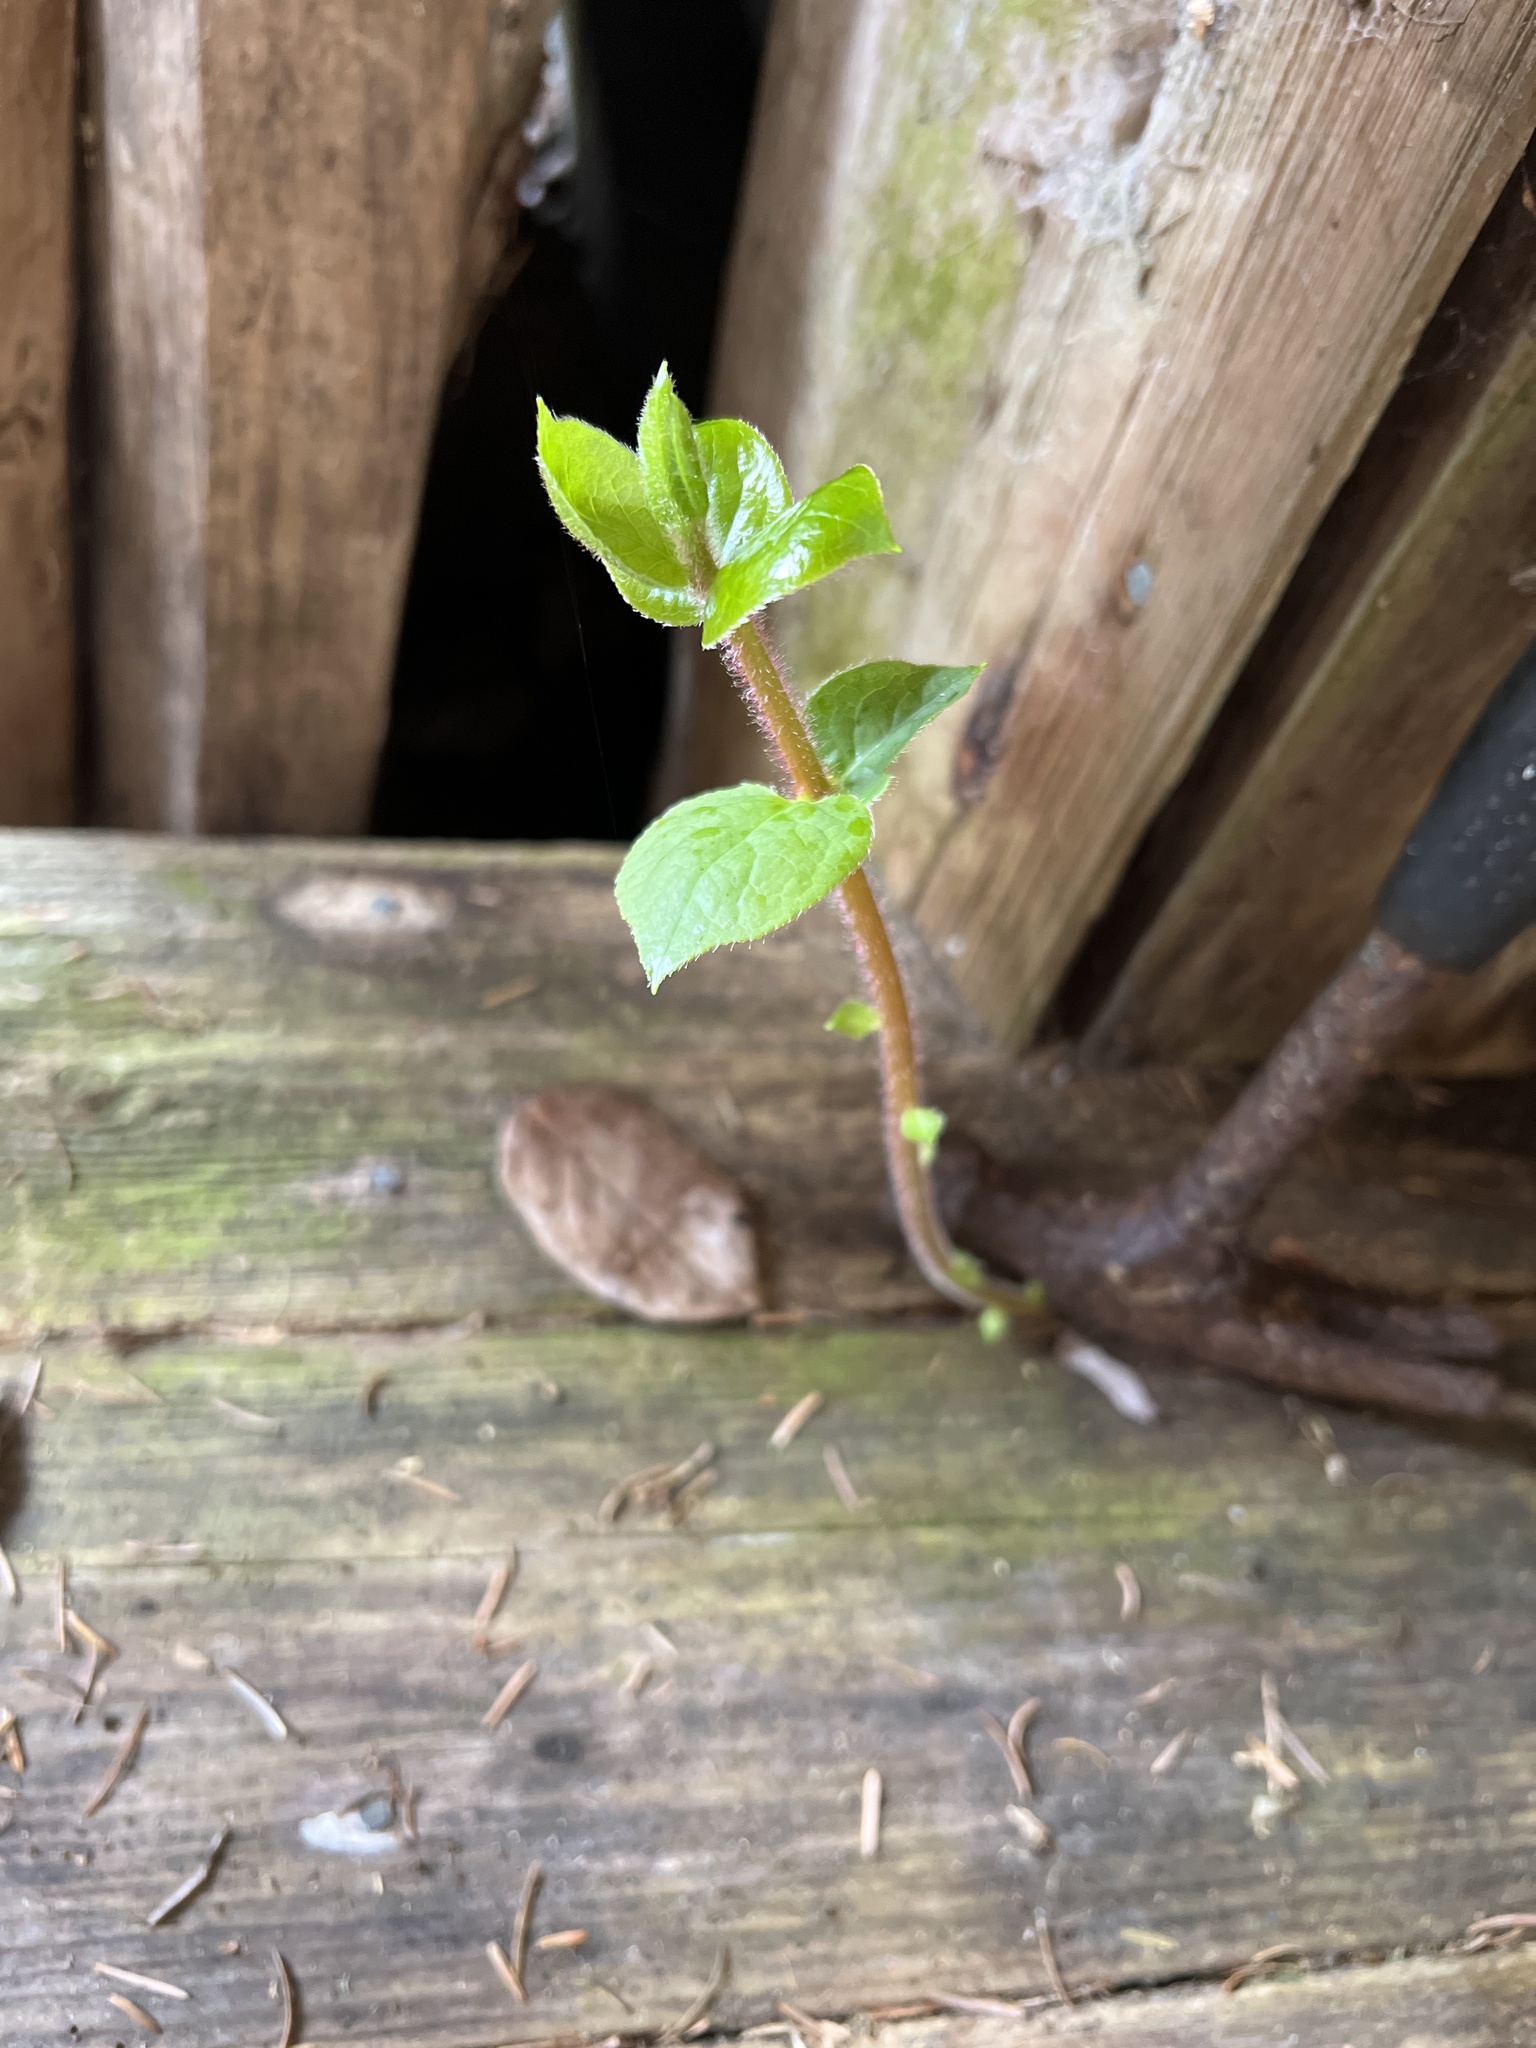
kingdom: Plantae
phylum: Tracheophyta
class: Magnoliopsida
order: Ericales
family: Ericaceae
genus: Gaultheria
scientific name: Gaultheria shallon
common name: Shallon
